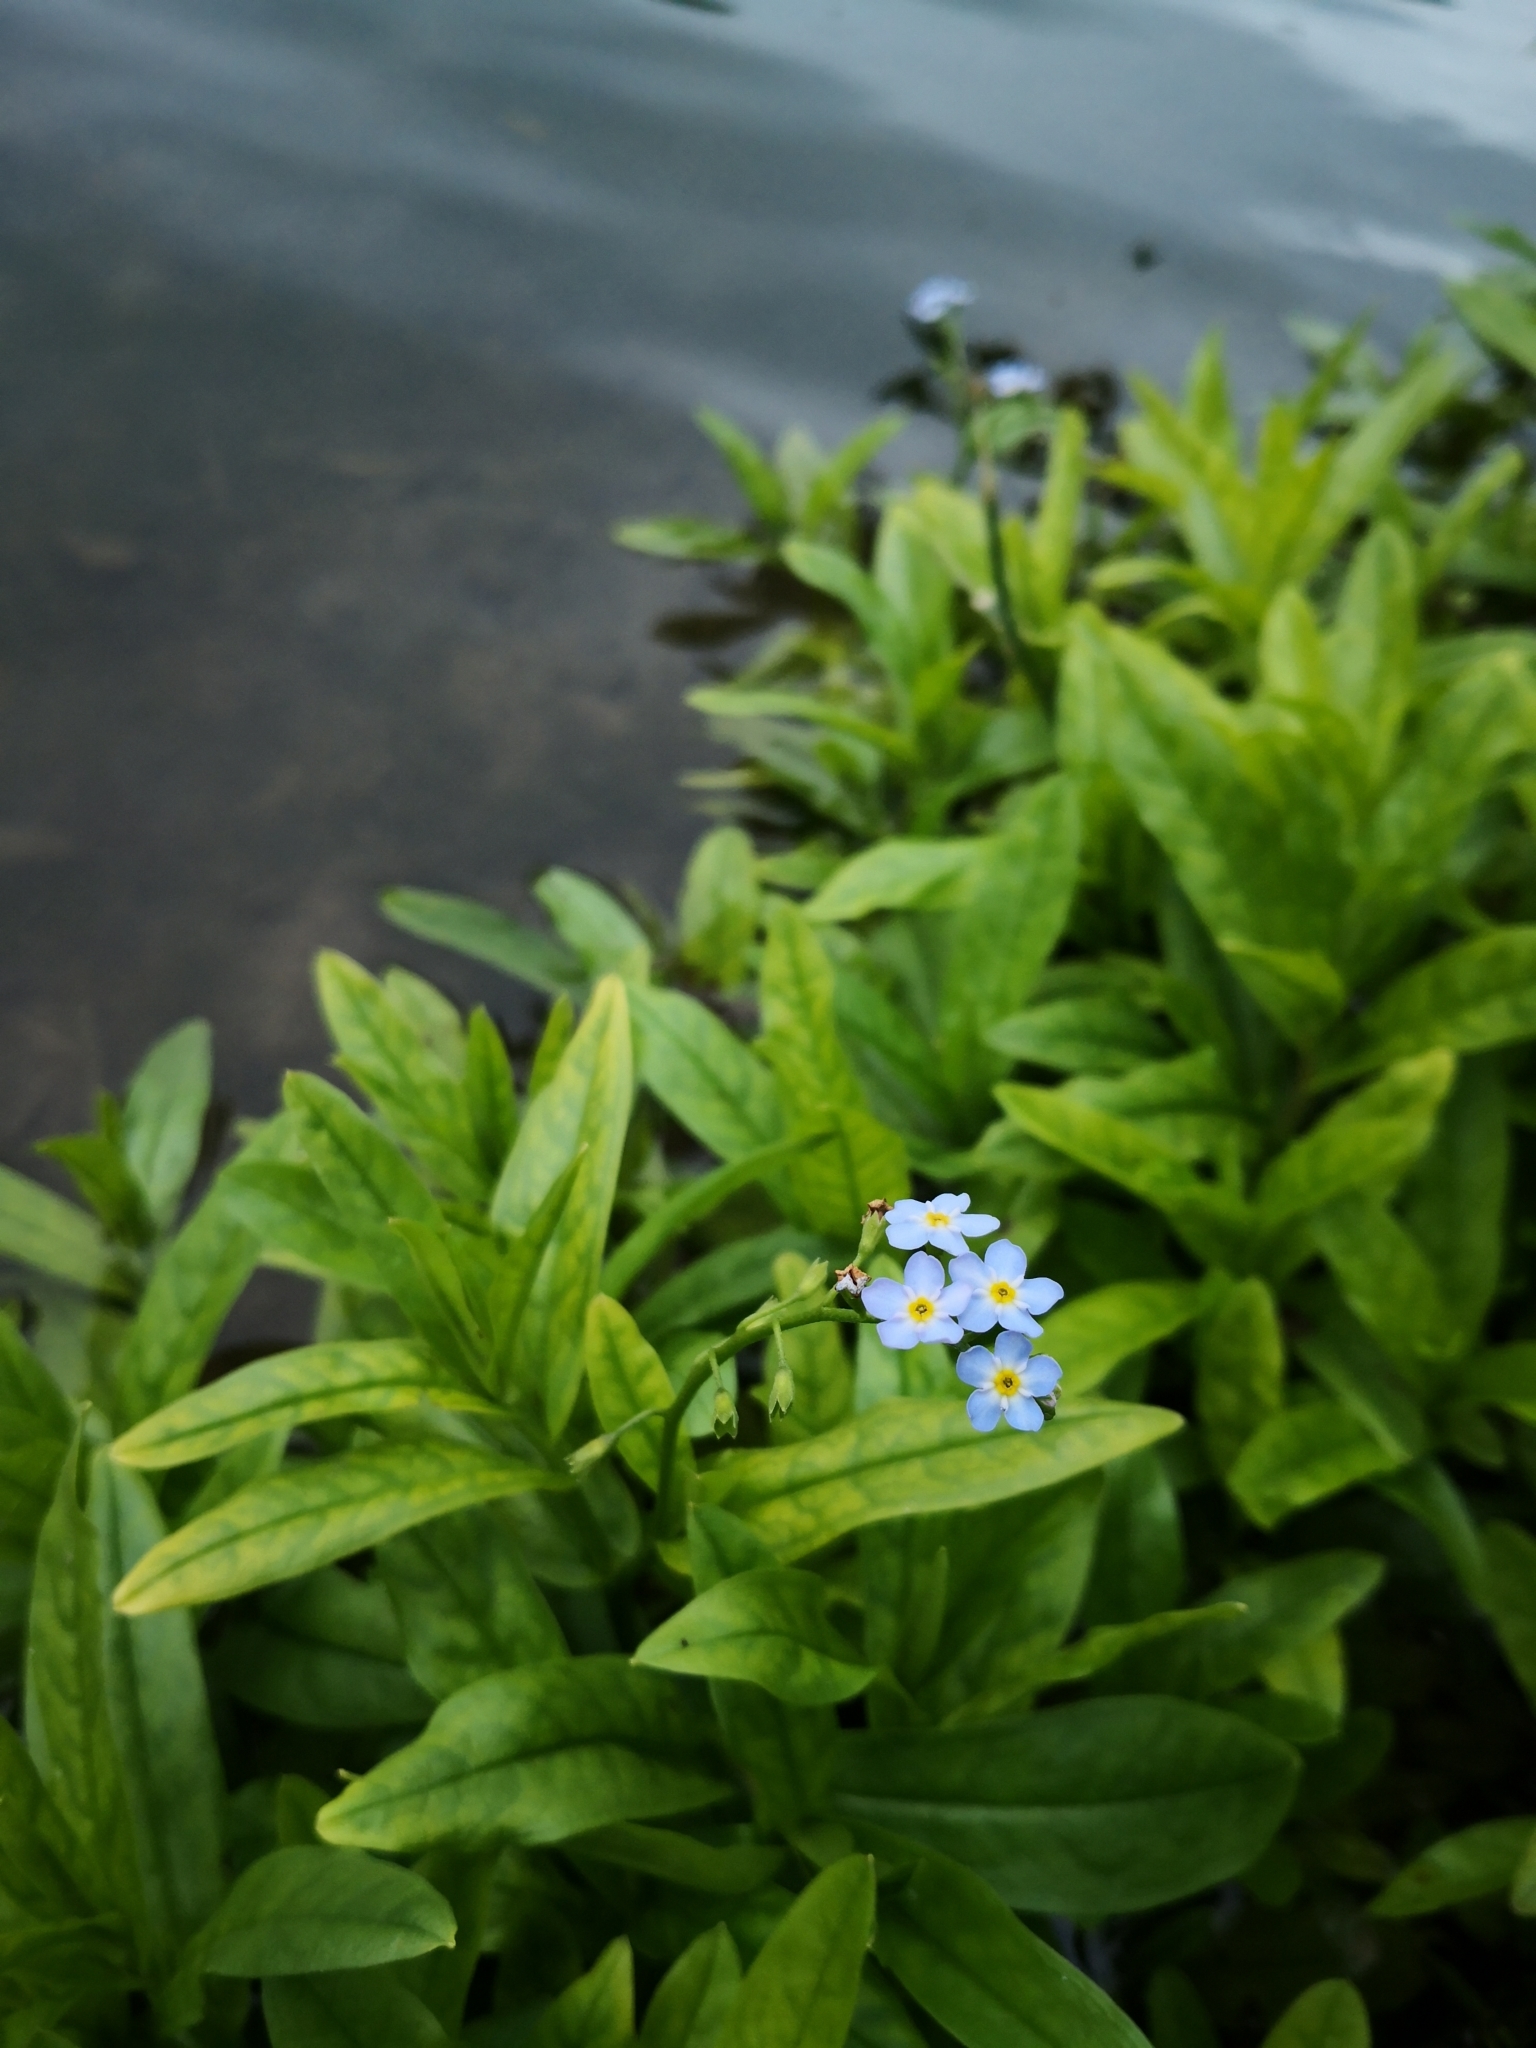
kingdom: Plantae
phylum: Tracheophyta
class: Magnoliopsida
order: Boraginales
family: Boraginaceae
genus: Myosotis
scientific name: Myosotis scorpioides
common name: Water forget-me-not
